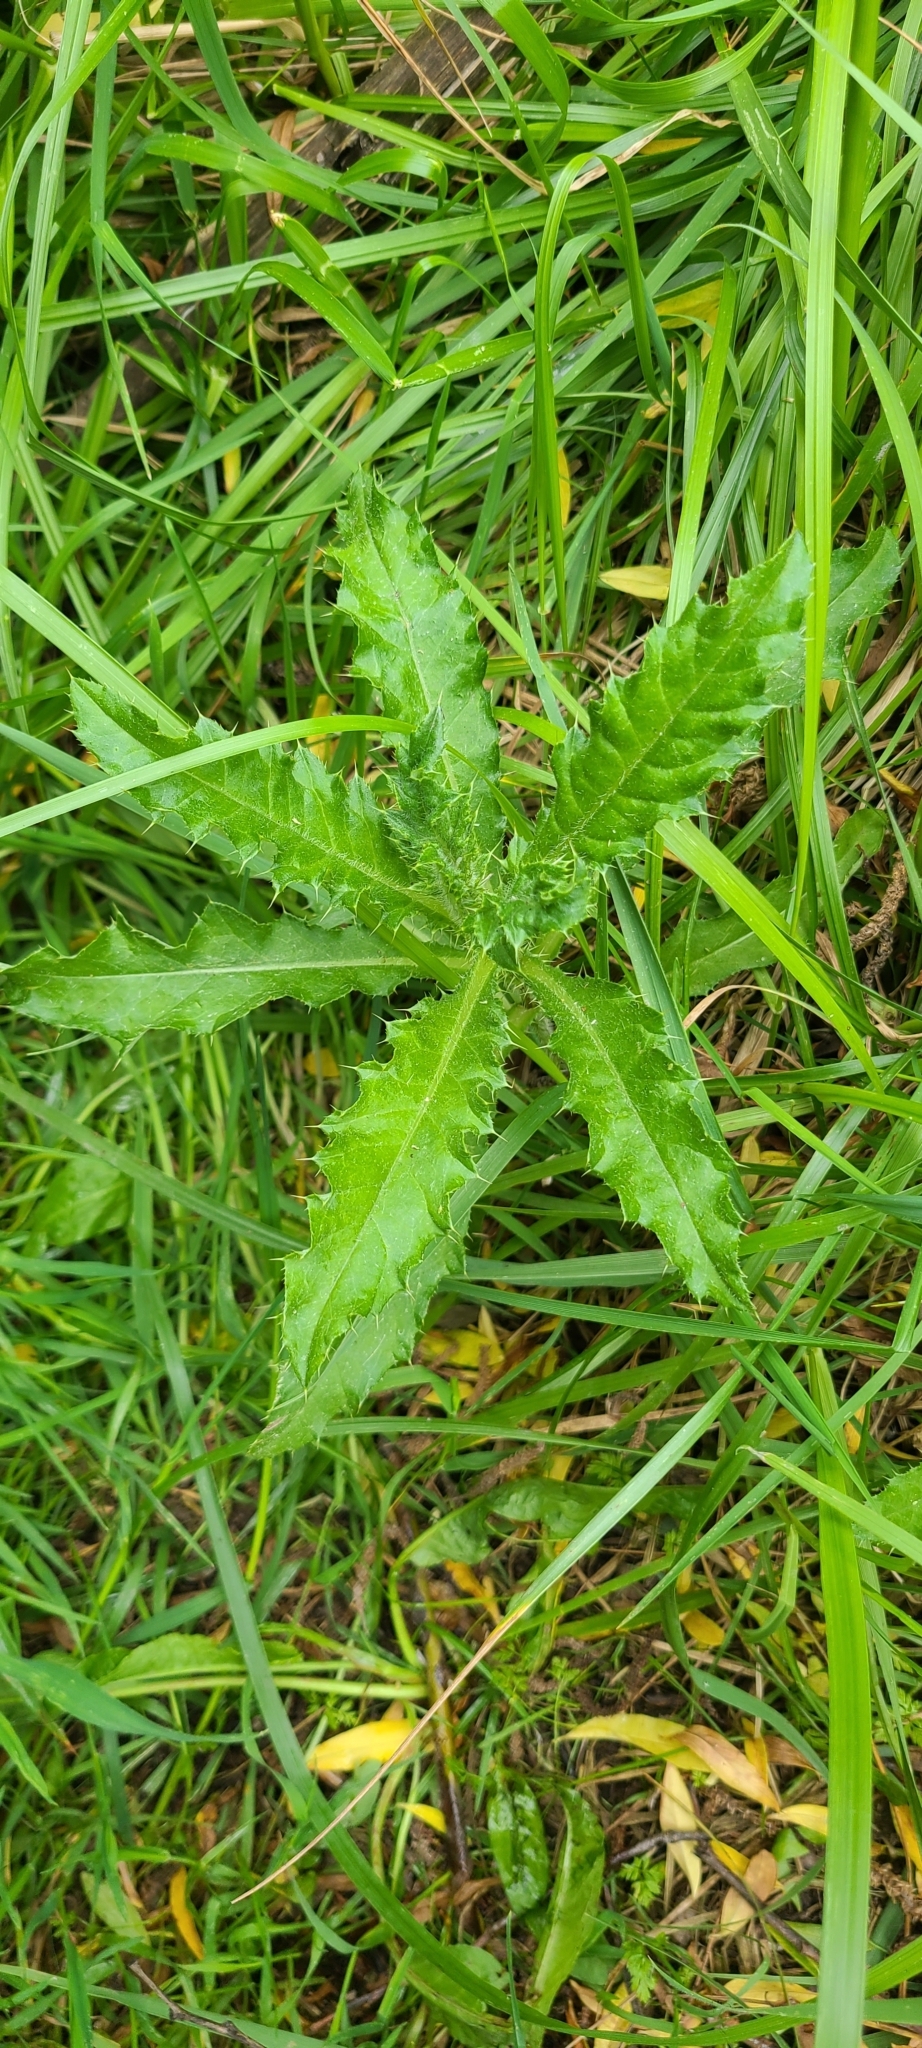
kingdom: Plantae
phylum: Tracheophyta
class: Magnoliopsida
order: Asterales
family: Asteraceae
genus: Cirsium
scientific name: Cirsium arvense
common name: Creeping thistle
